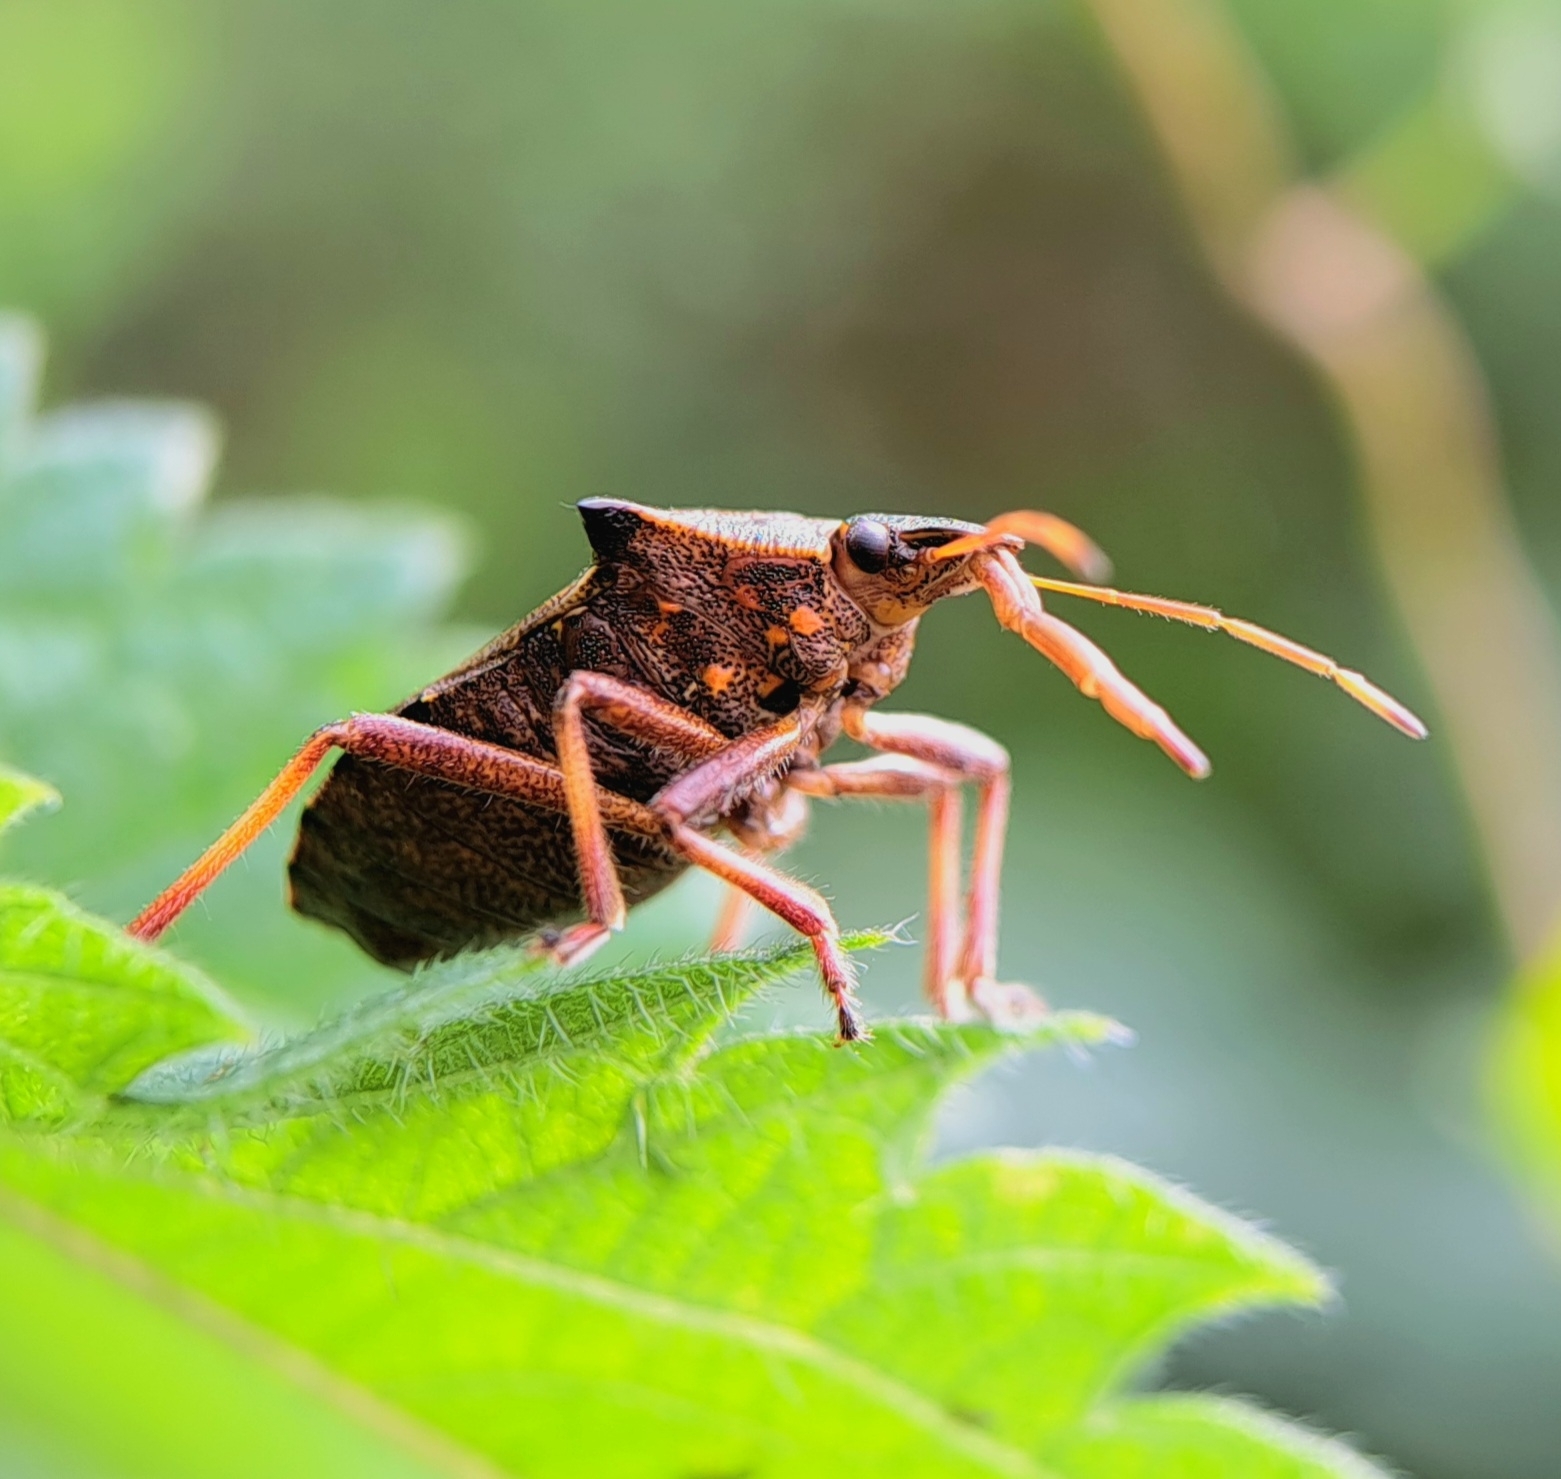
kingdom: Animalia
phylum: Arthropoda
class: Insecta
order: Hemiptera
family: Pentatomidae
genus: Picromerus
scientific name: Picromerus bidens
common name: Spiked shieldbug
